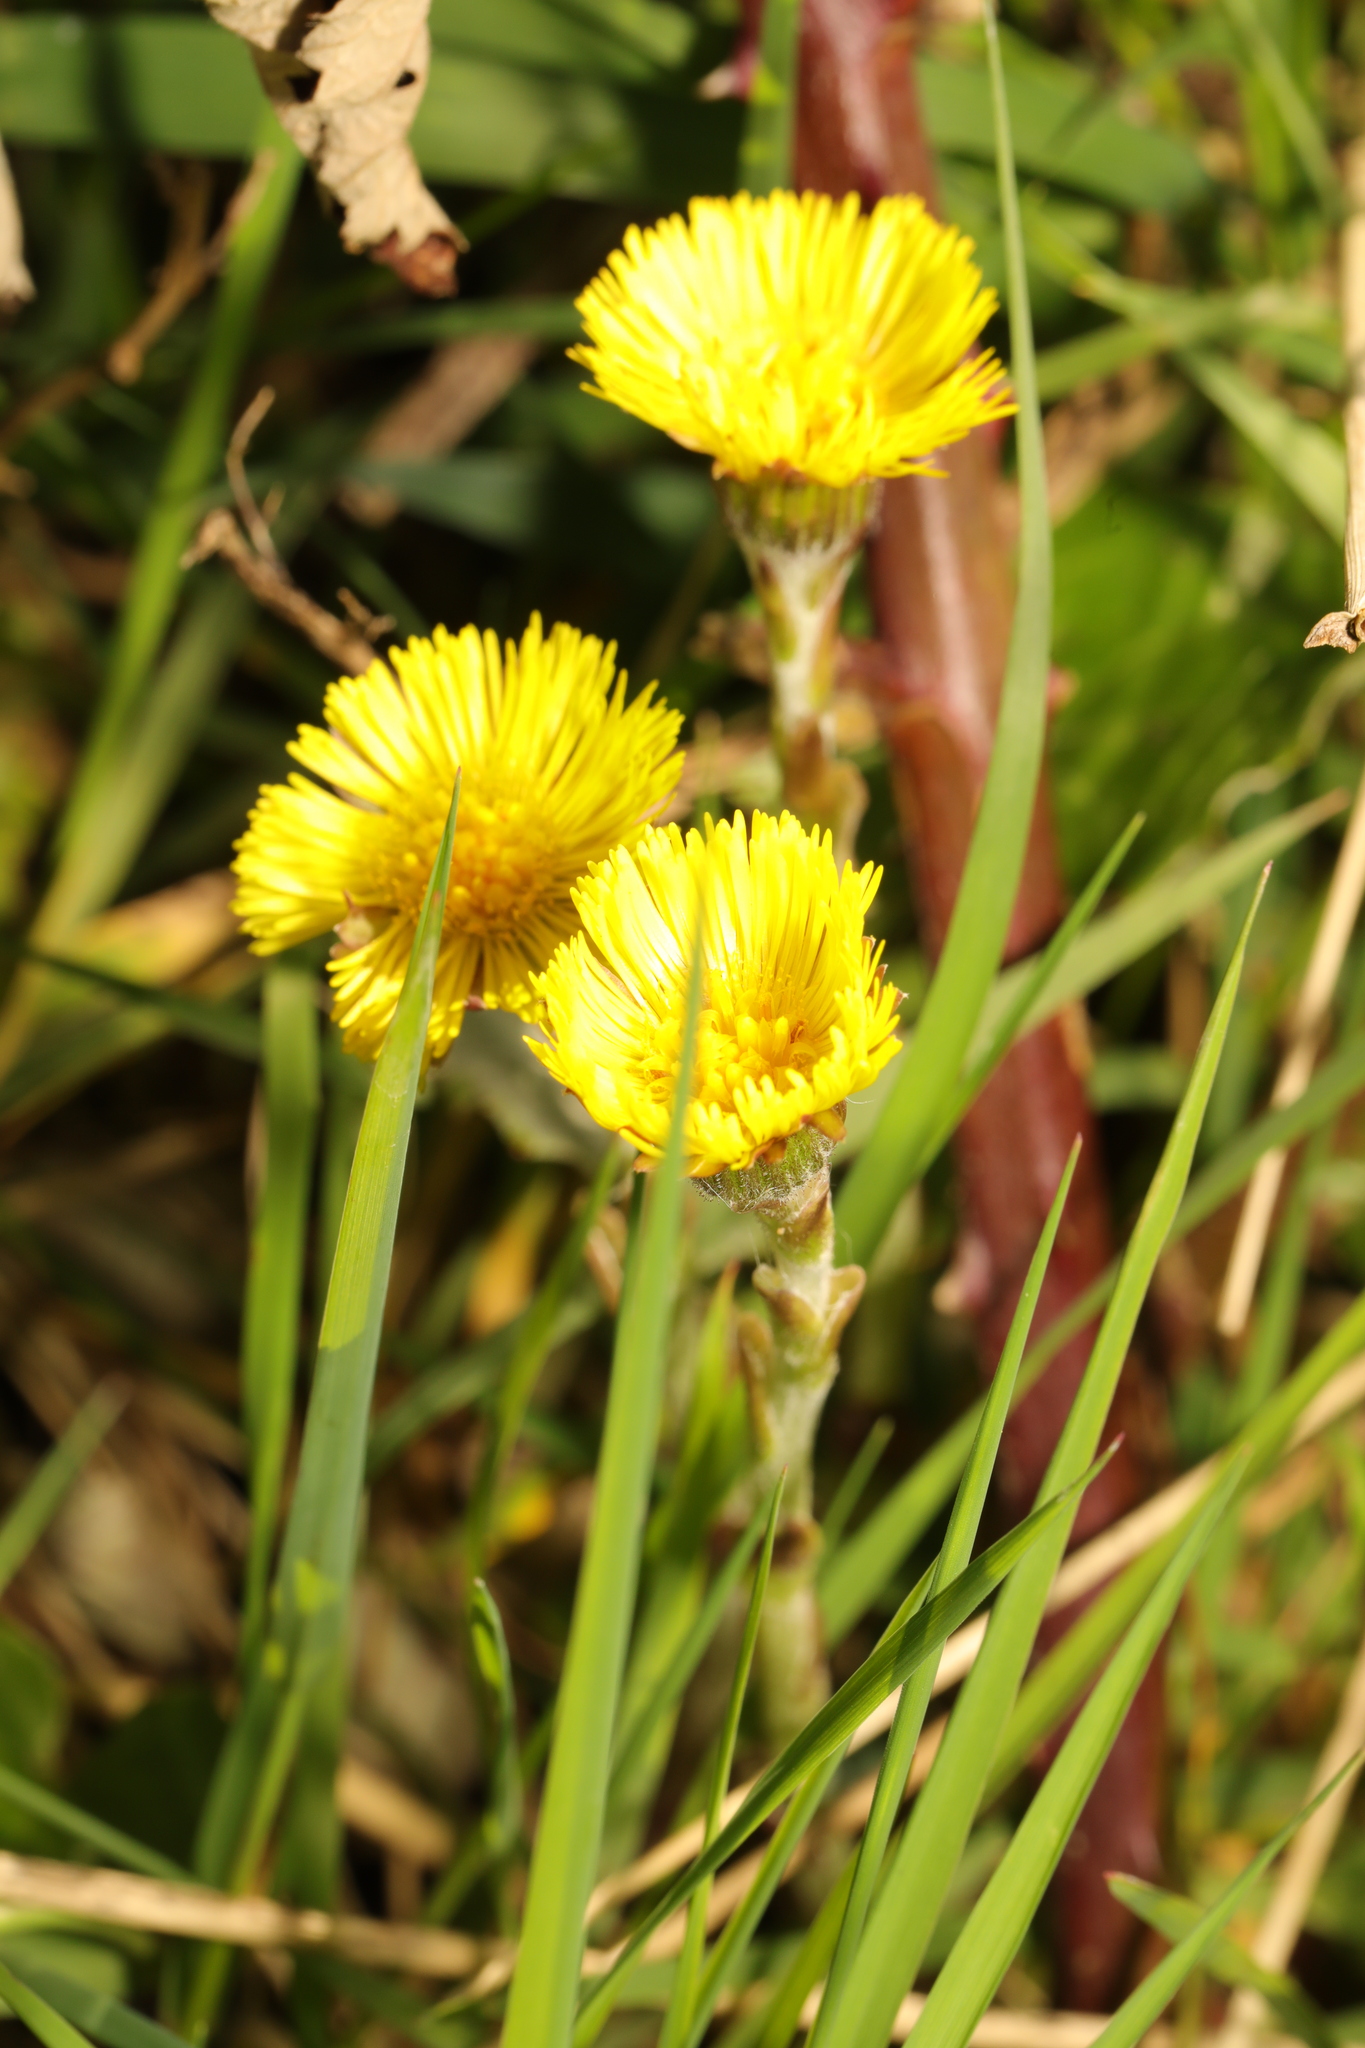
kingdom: Plantae
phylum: Tracheophyta
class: Magnoliopsida
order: Asterales
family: Asteraceae
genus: Tussilago
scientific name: Tussilago farfara
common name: Coltsfoot
